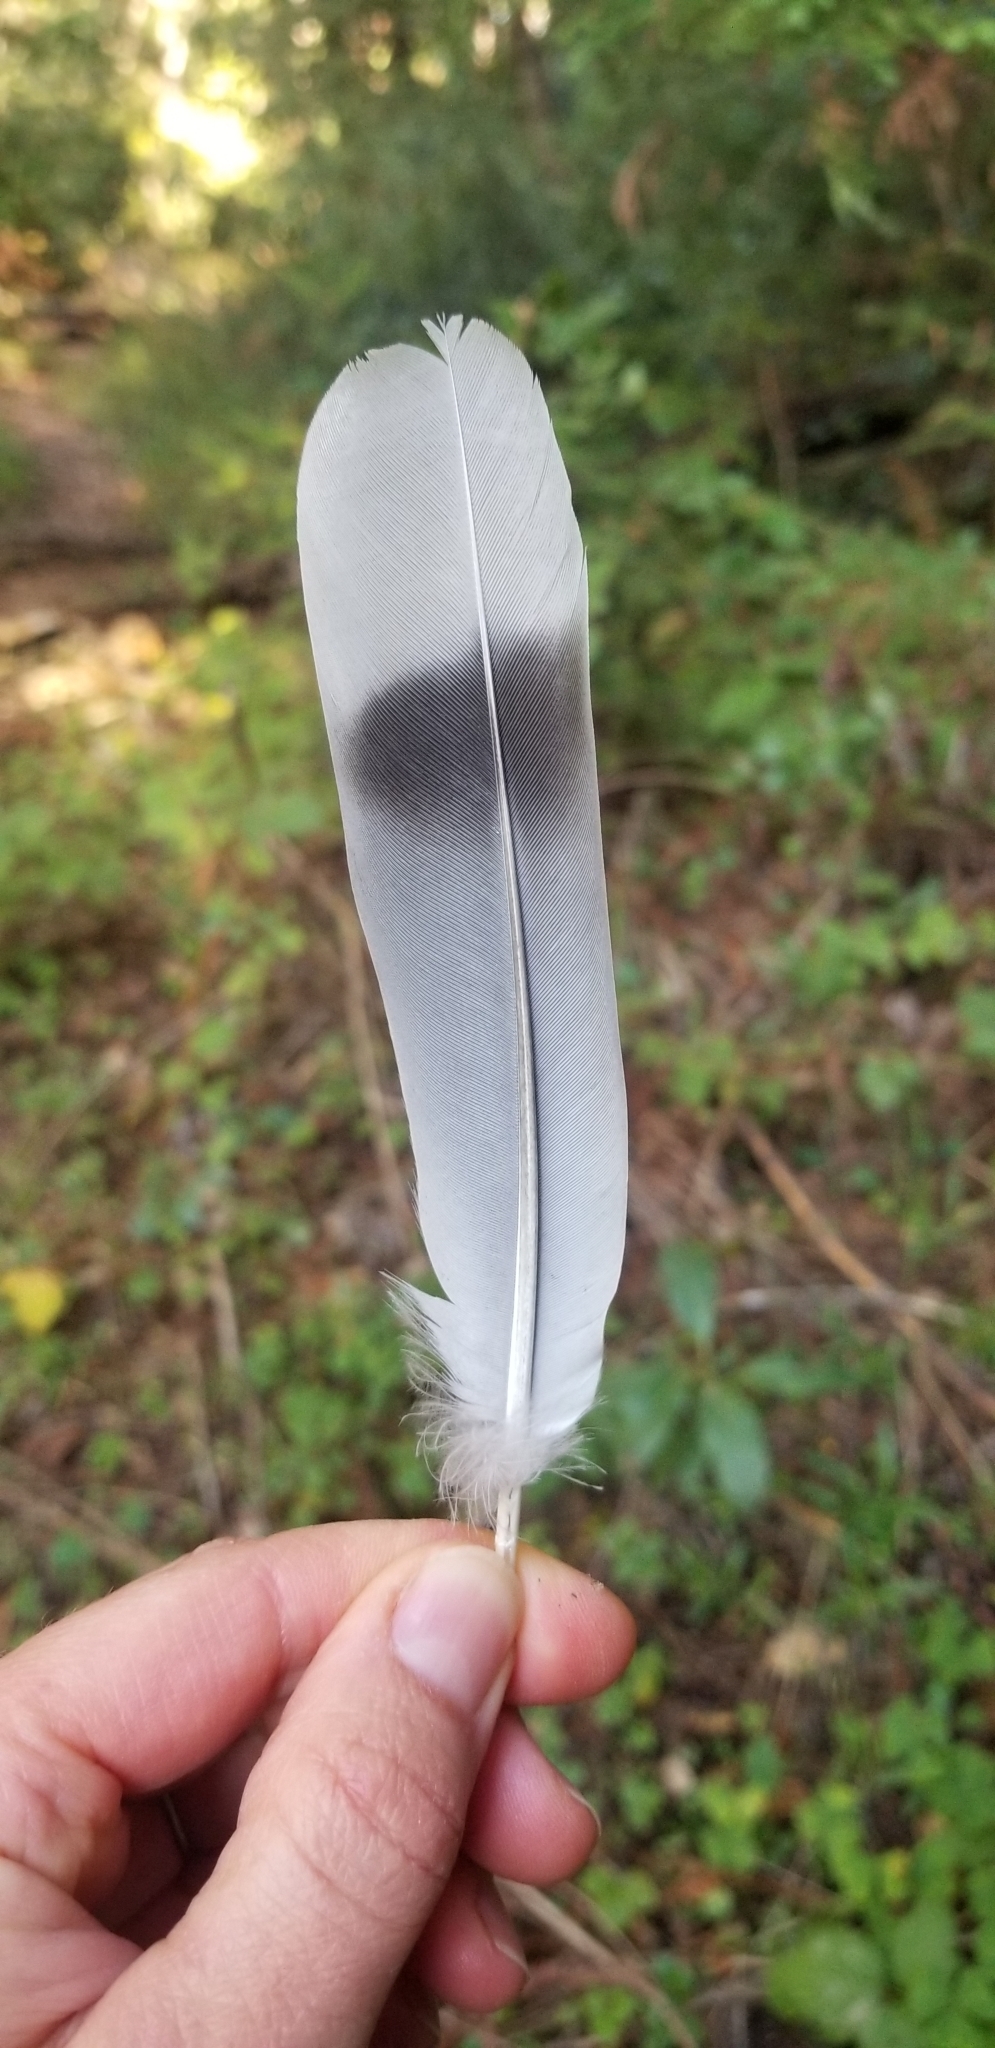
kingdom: Animalia
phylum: Chordata
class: Aves
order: Columbiformes
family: Columbidae
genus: Patagioenas
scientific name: Patagioenas fasciata
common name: Band-tailed pigeon
